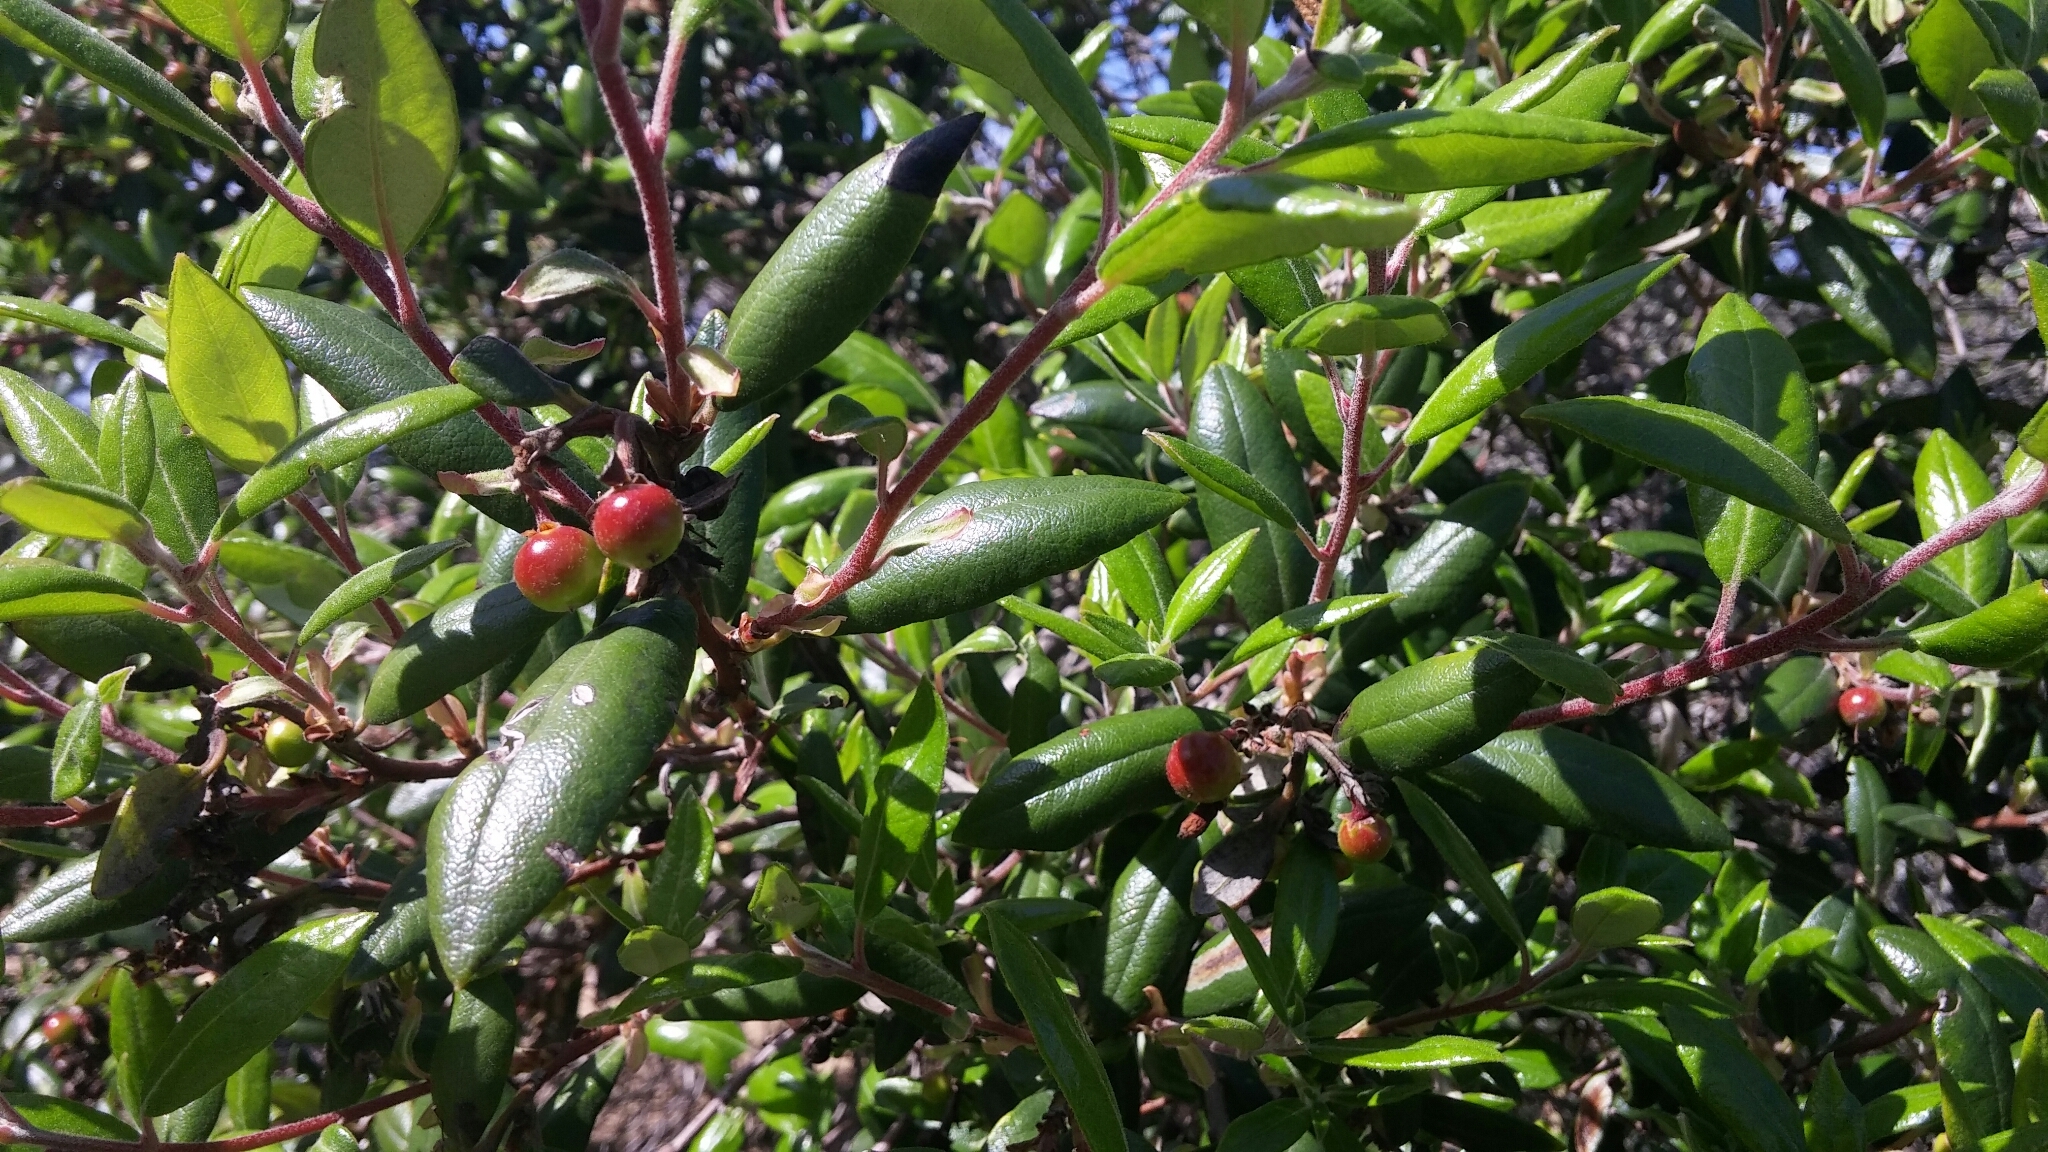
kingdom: Plantae
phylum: Tracheophyta
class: Magnoliopsida
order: Ericales
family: Ericaceae
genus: Arctostaphylos
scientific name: Arctostaphylos bicolor
